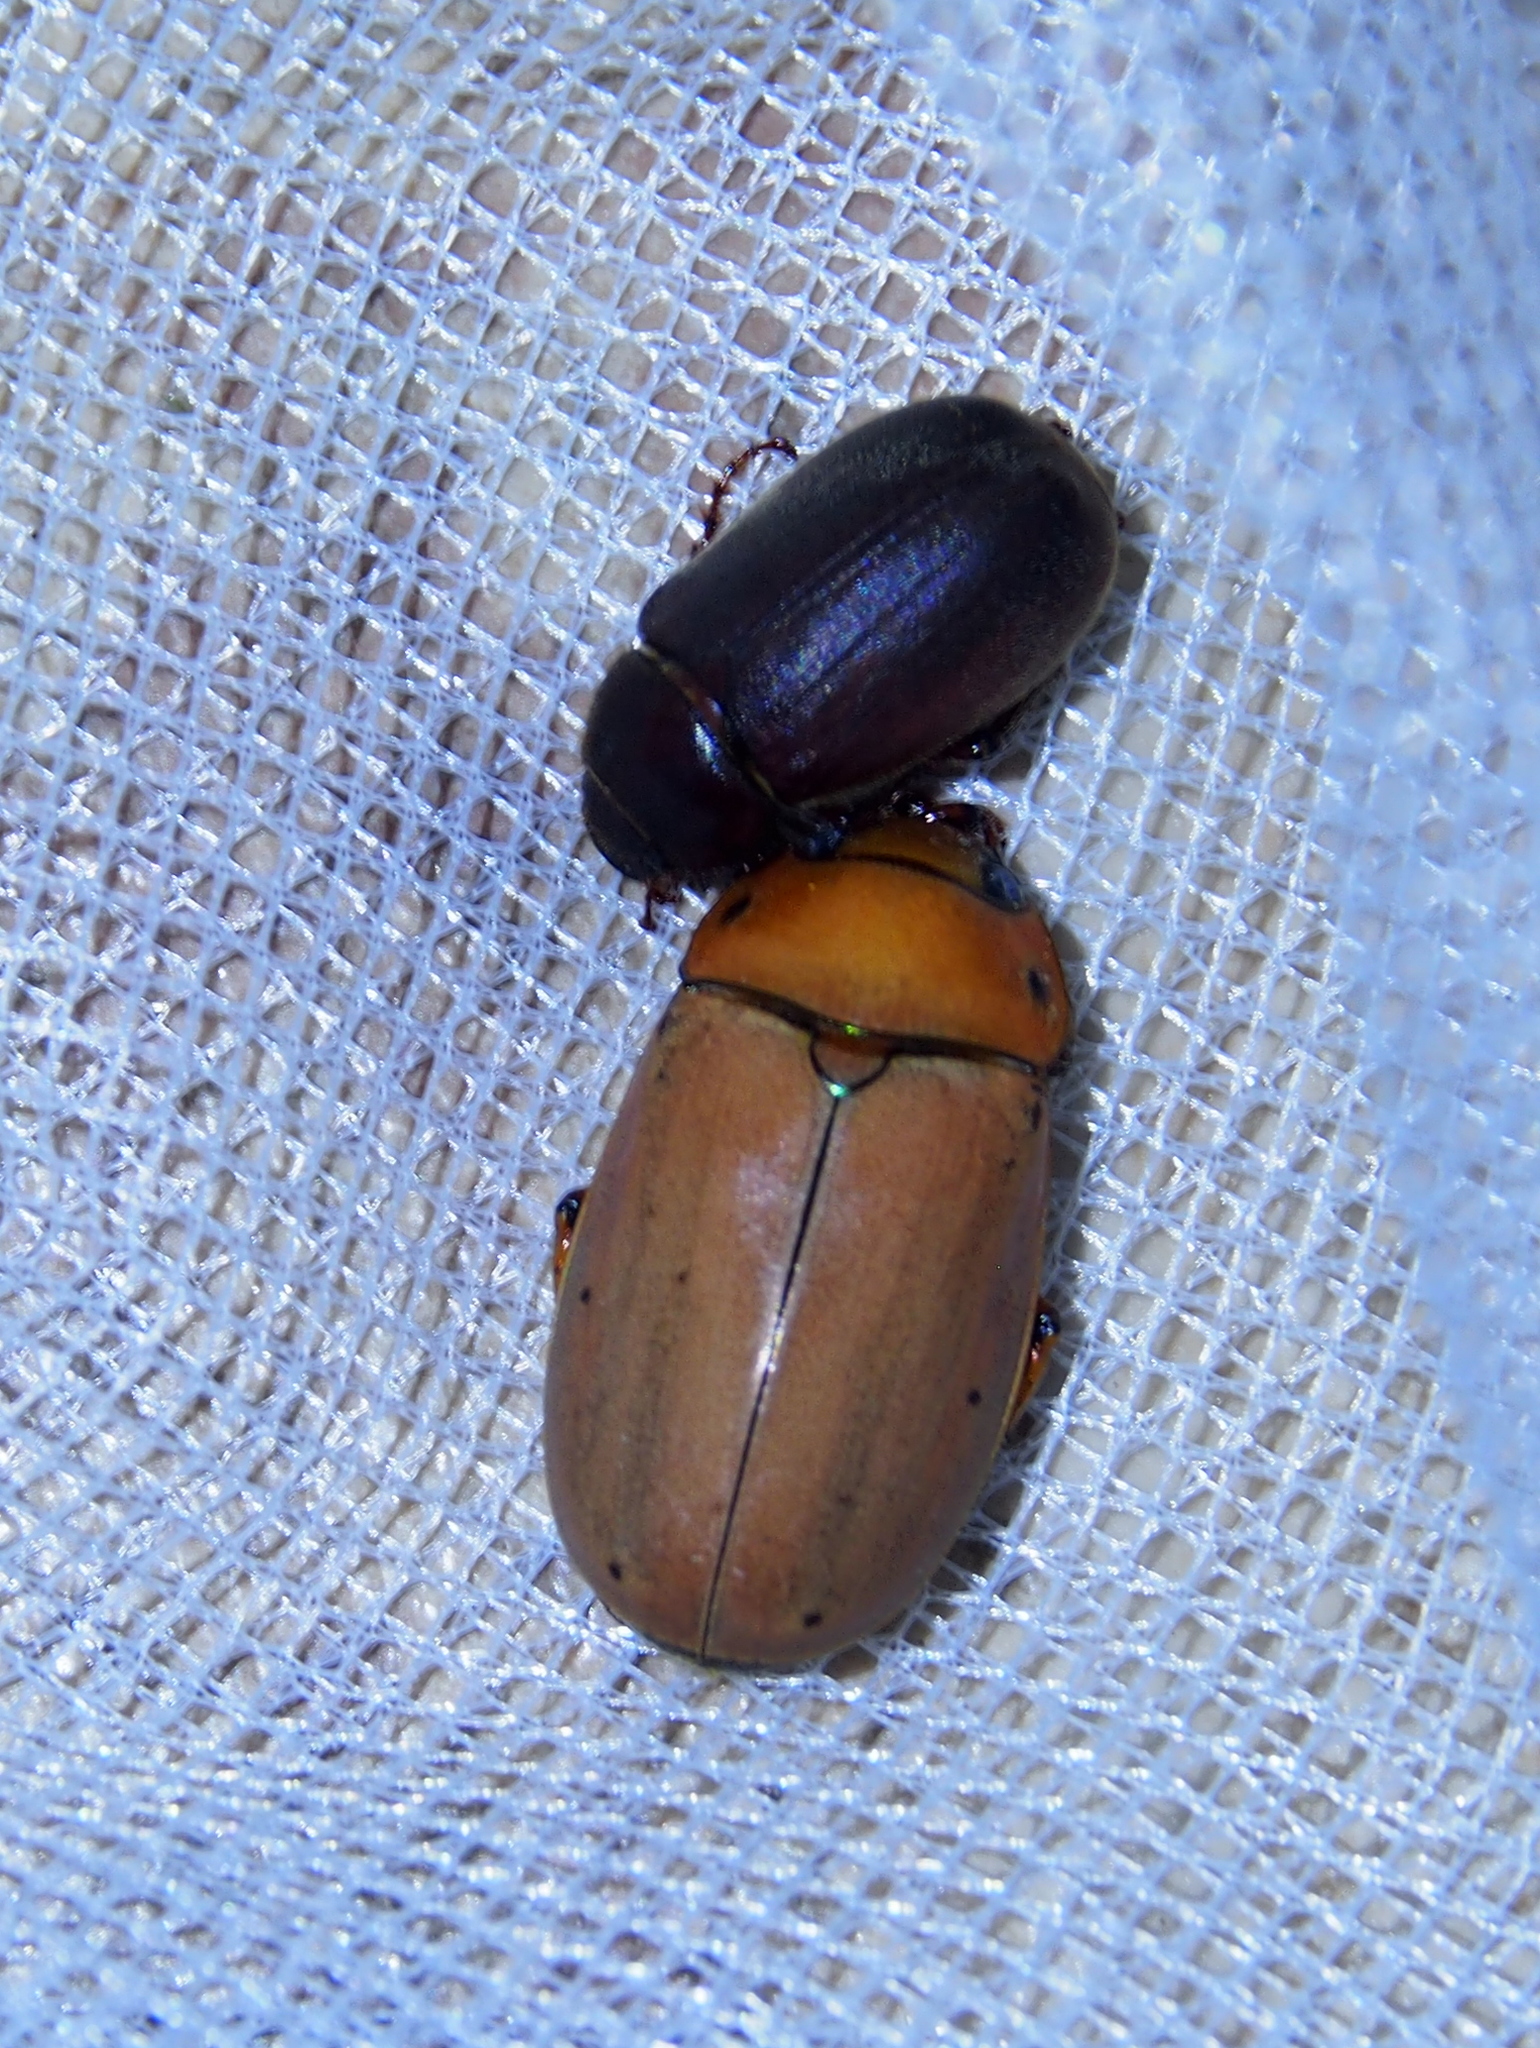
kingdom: Animalia
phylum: Arthropoda
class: Insecta
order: Coleoptera
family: Scarabaeidae
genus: Pelidnota
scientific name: Pelidnota notata
